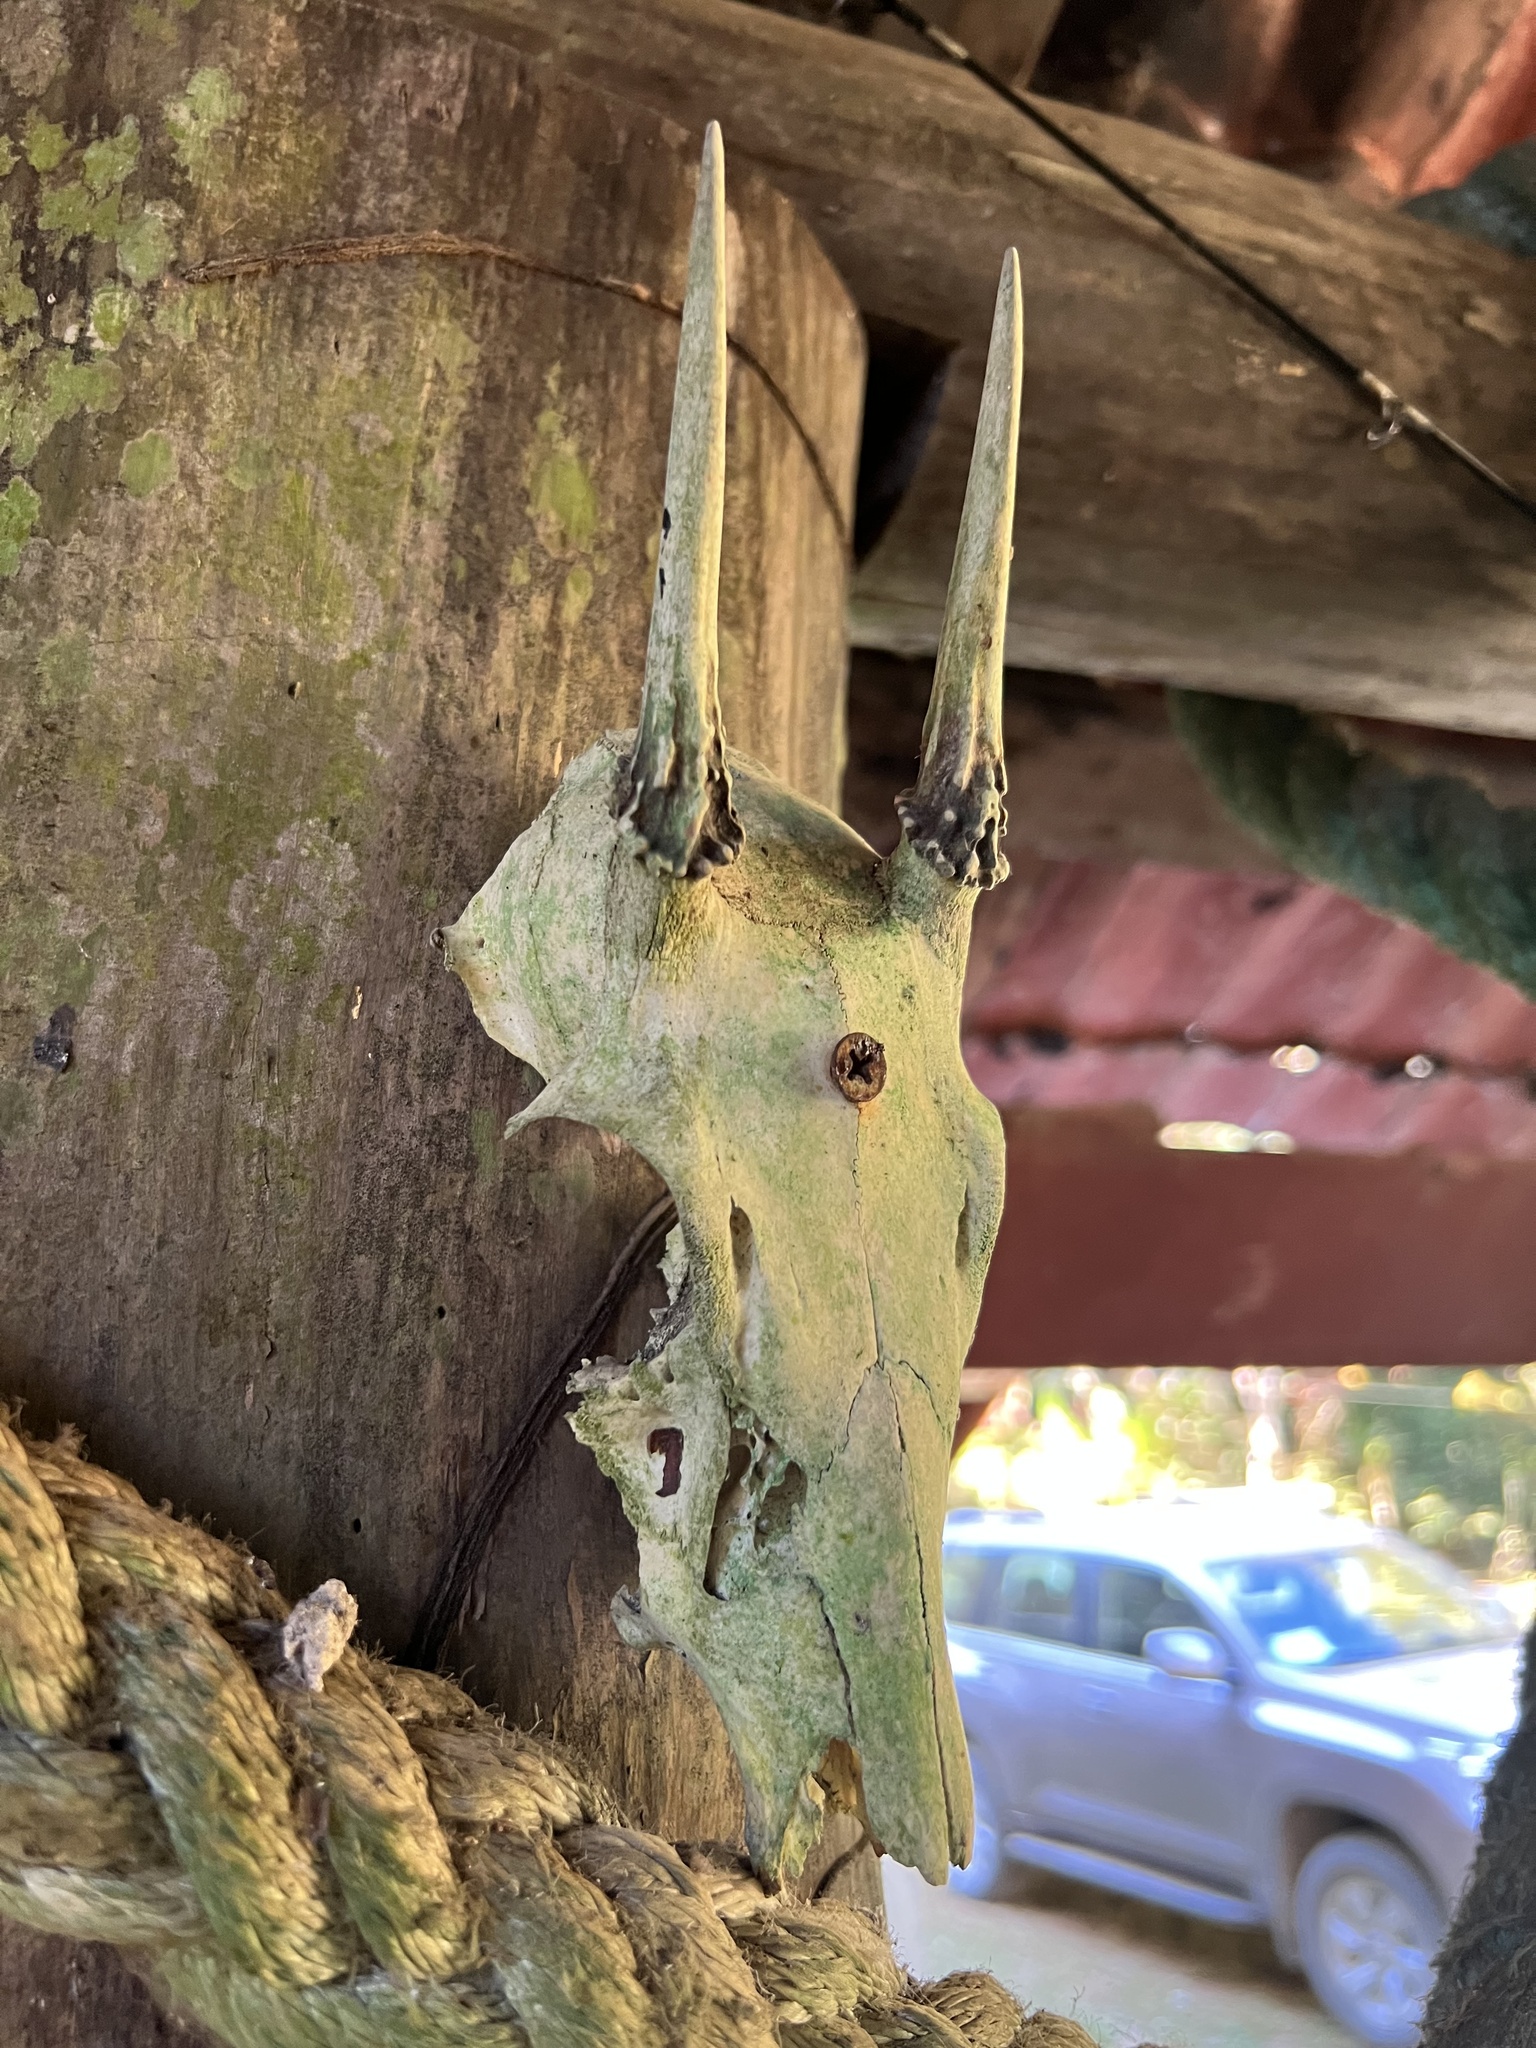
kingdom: Animalia
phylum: Chordata
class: Mammalia
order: Artiodactyla
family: Cervidae
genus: Mazama
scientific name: Mazama temama
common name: Central american red brocket
